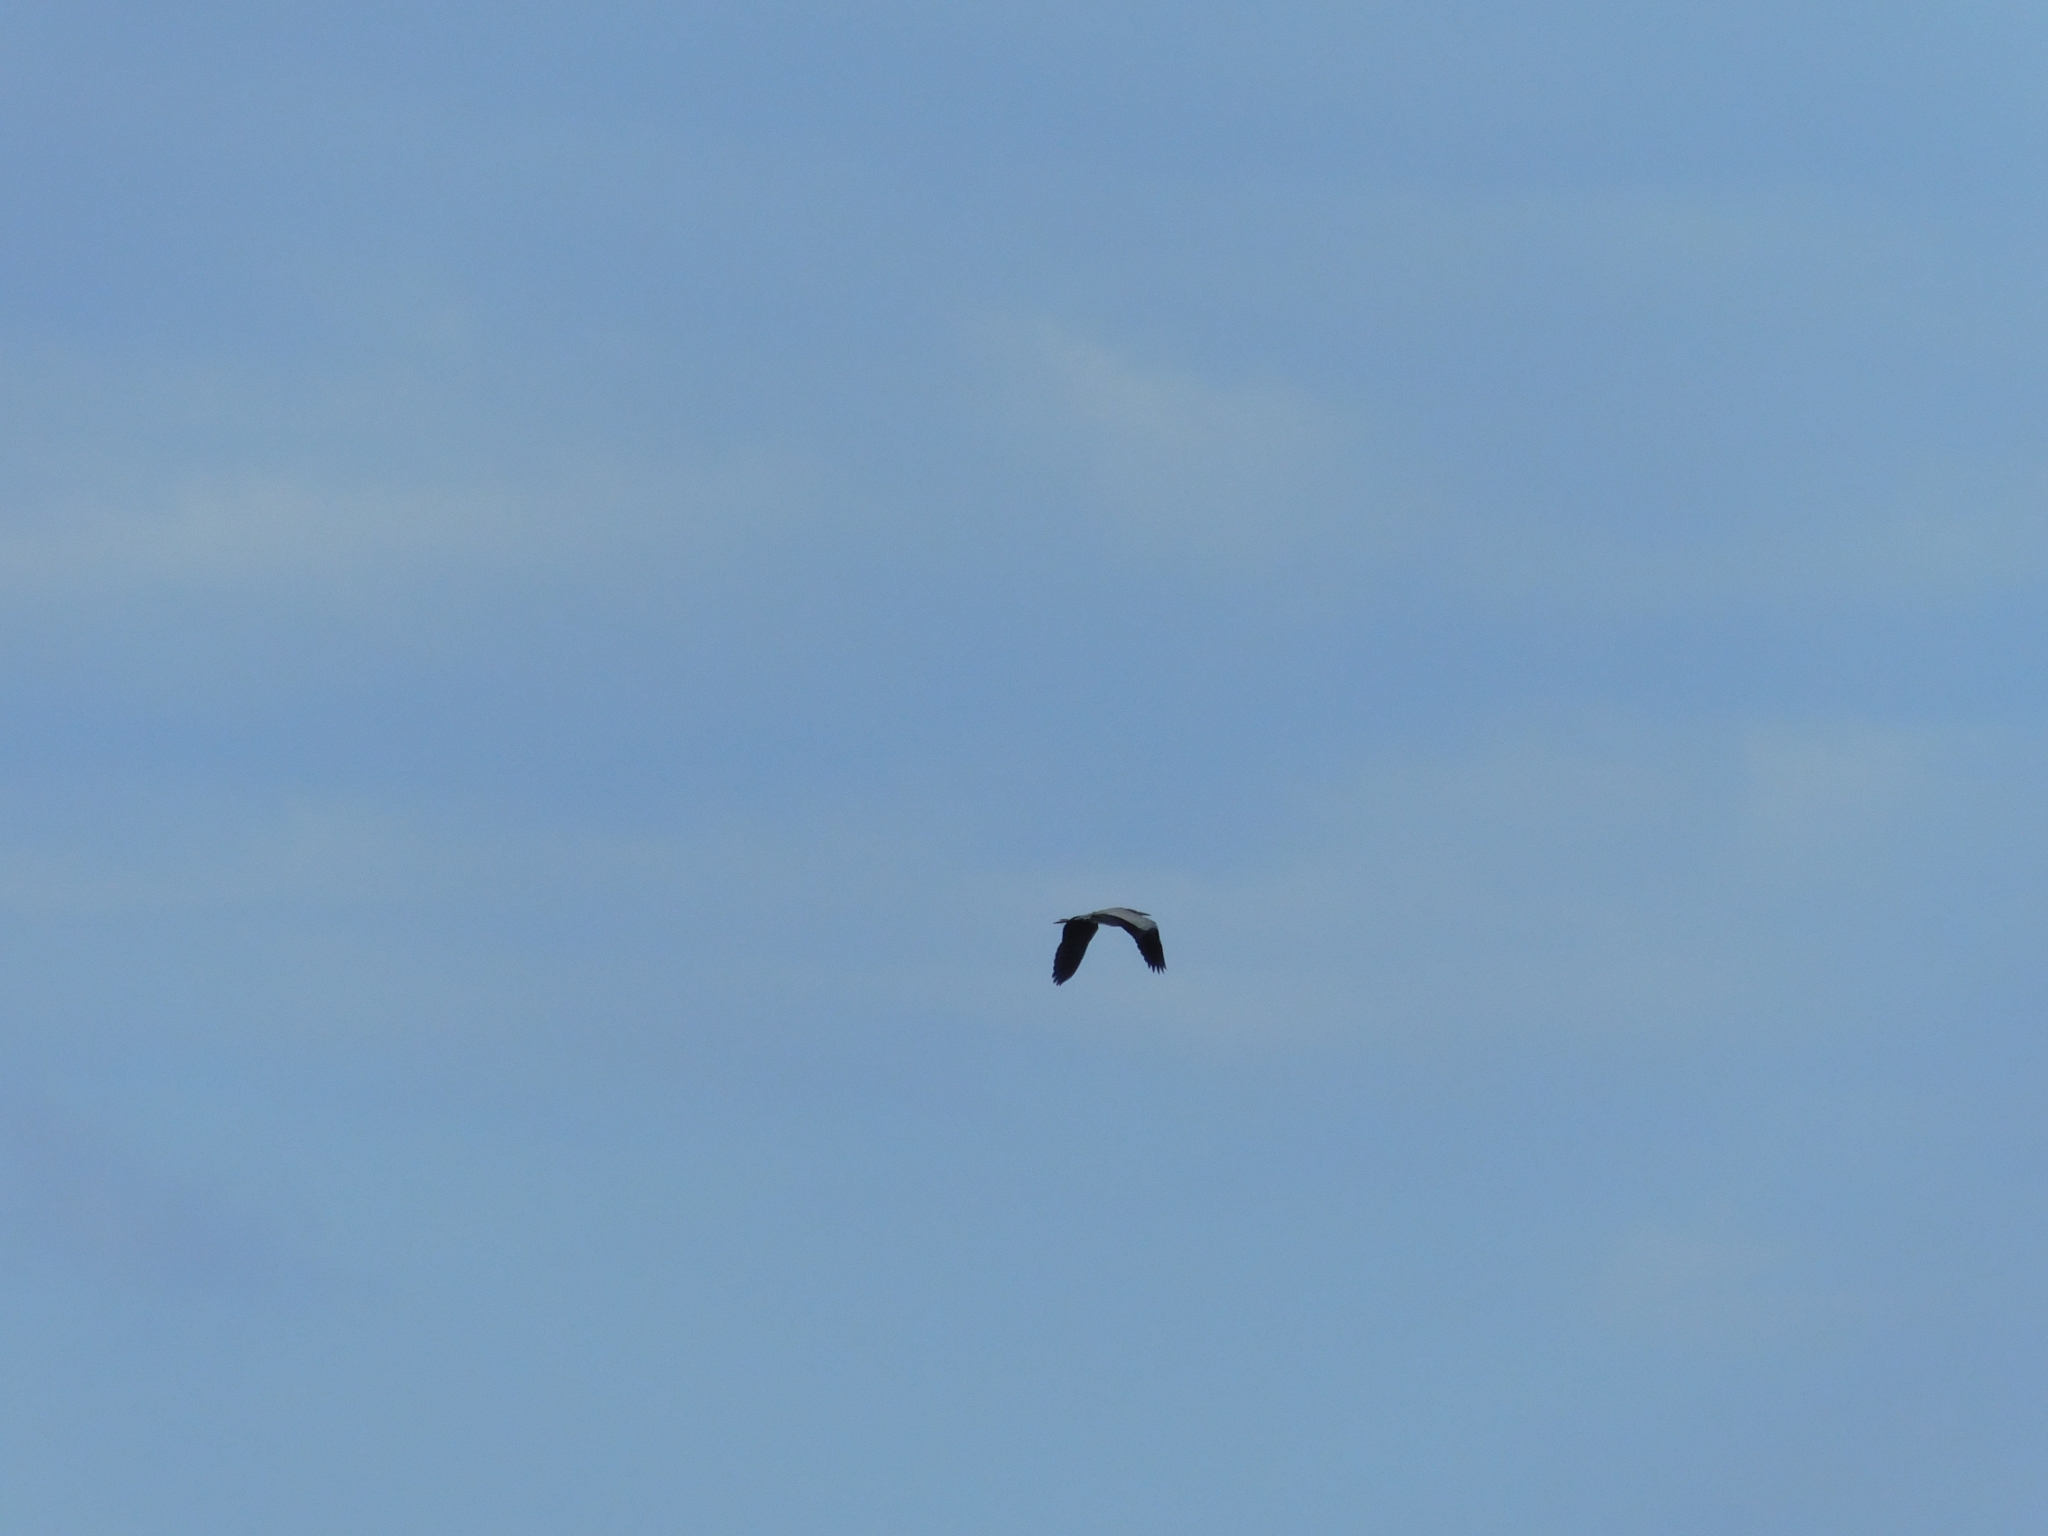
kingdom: Animalia
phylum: Chordata
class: Aves
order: Pelecaniformes
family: Ardeidae
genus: Ardea
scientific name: Ardea cinerea
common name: Grey heron
